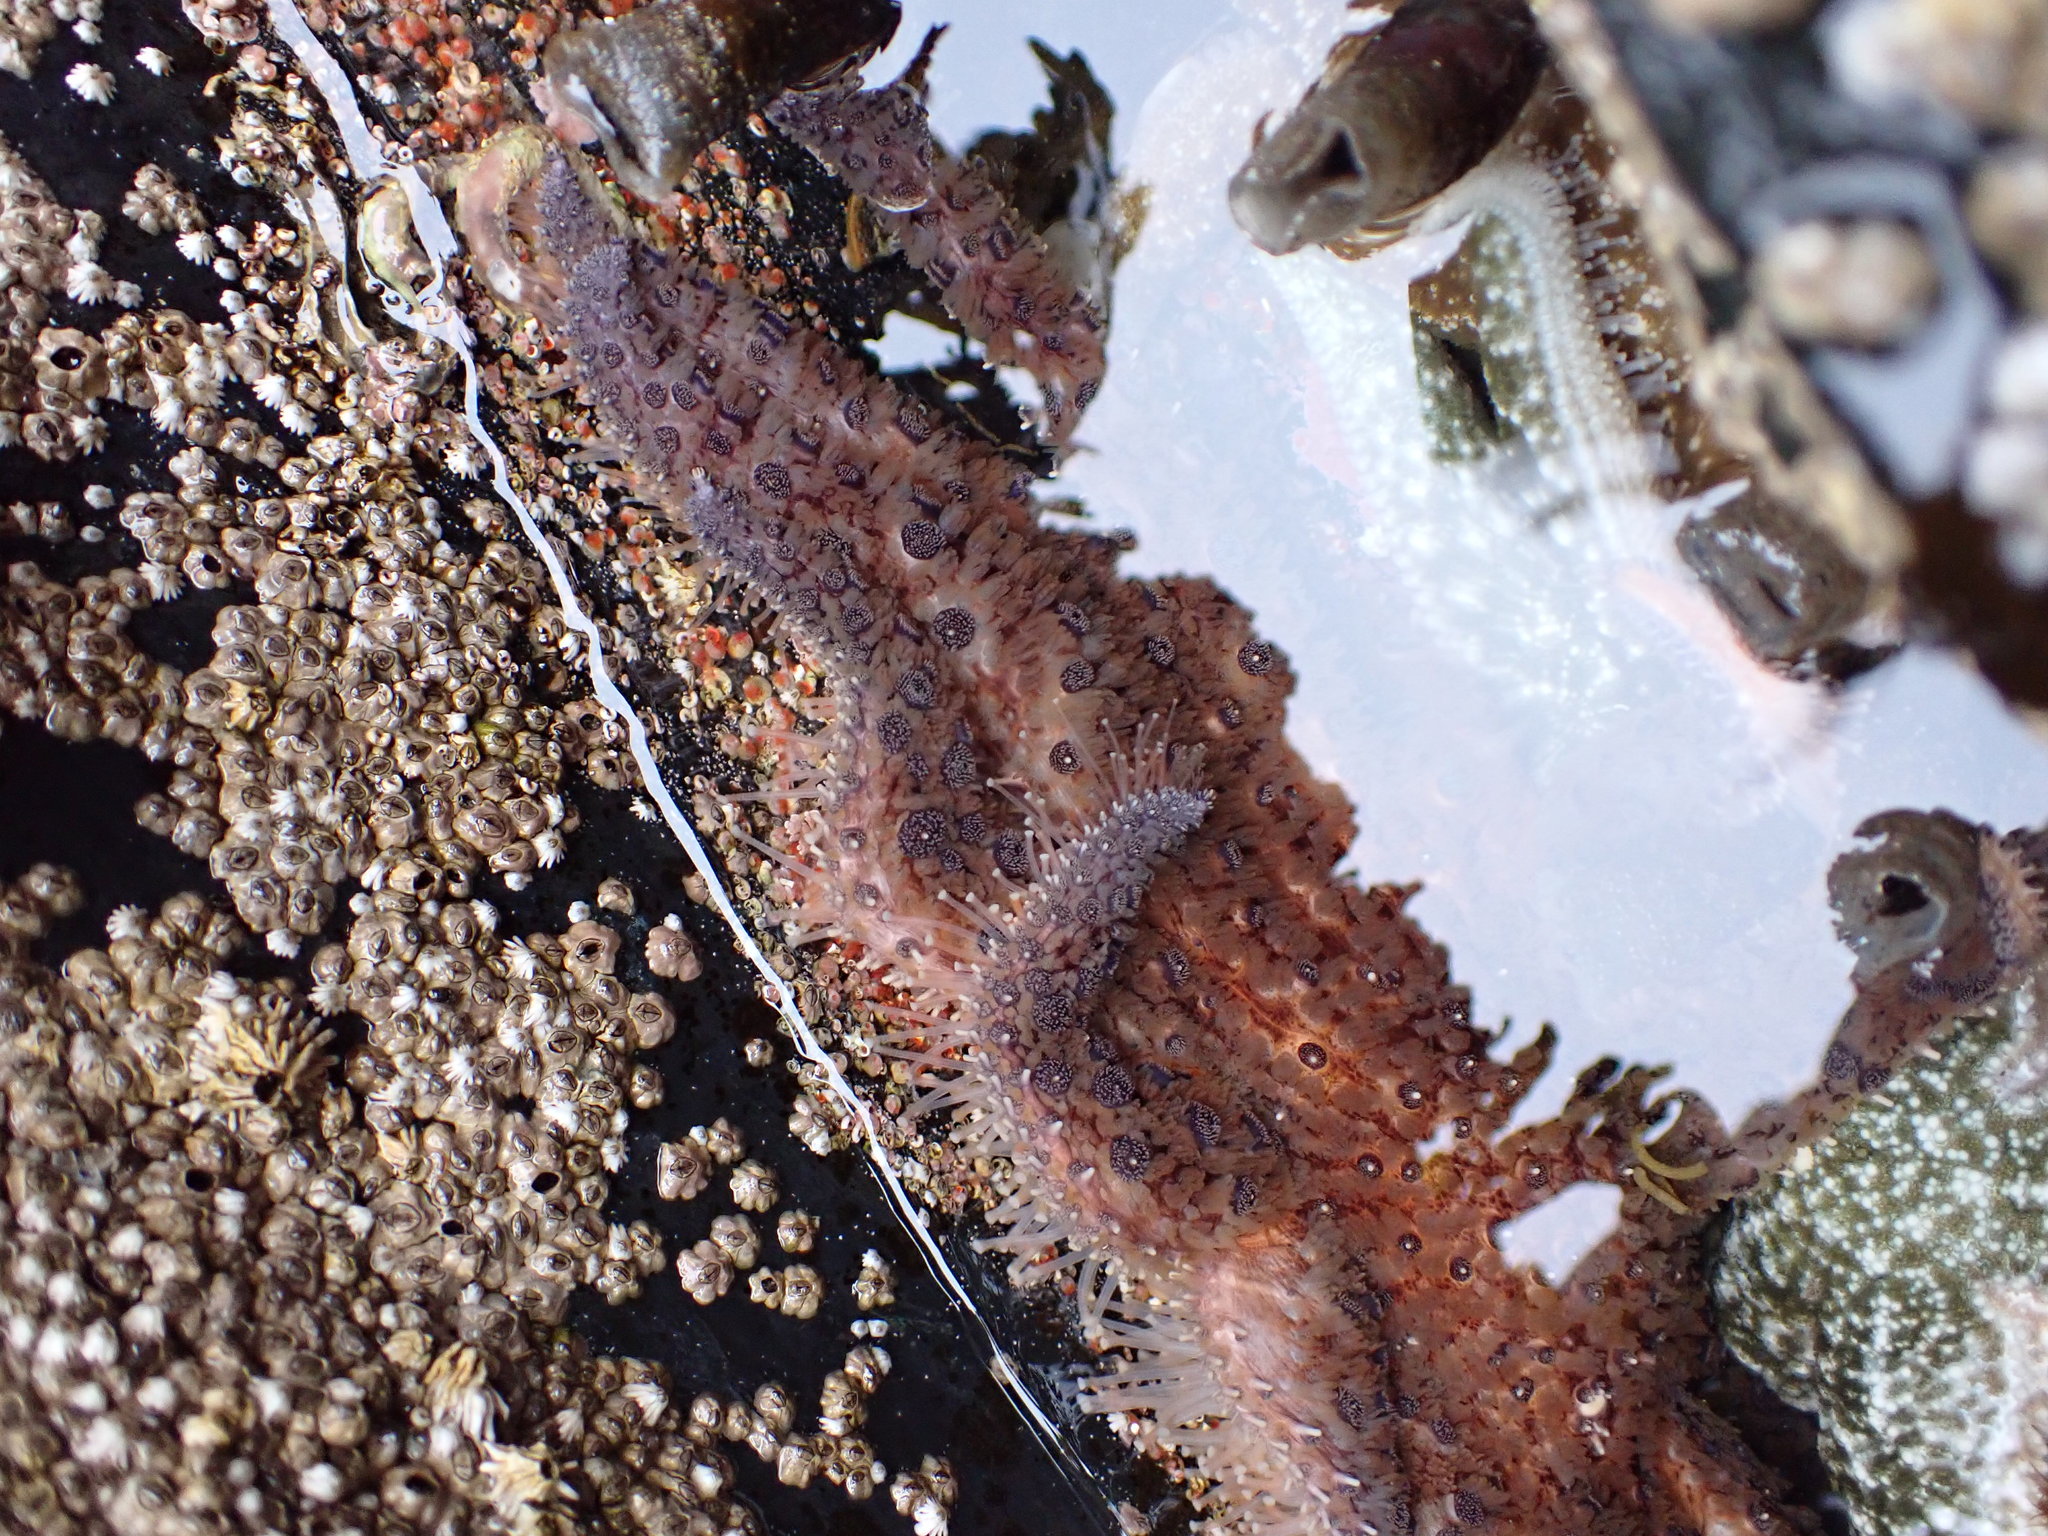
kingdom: Animalia
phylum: Echinodermata
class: Asteroidea
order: Forcipulatida
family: Asteriidae
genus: Pycnopodia
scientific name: Pycnopodia helianthoides
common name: Rag mop
